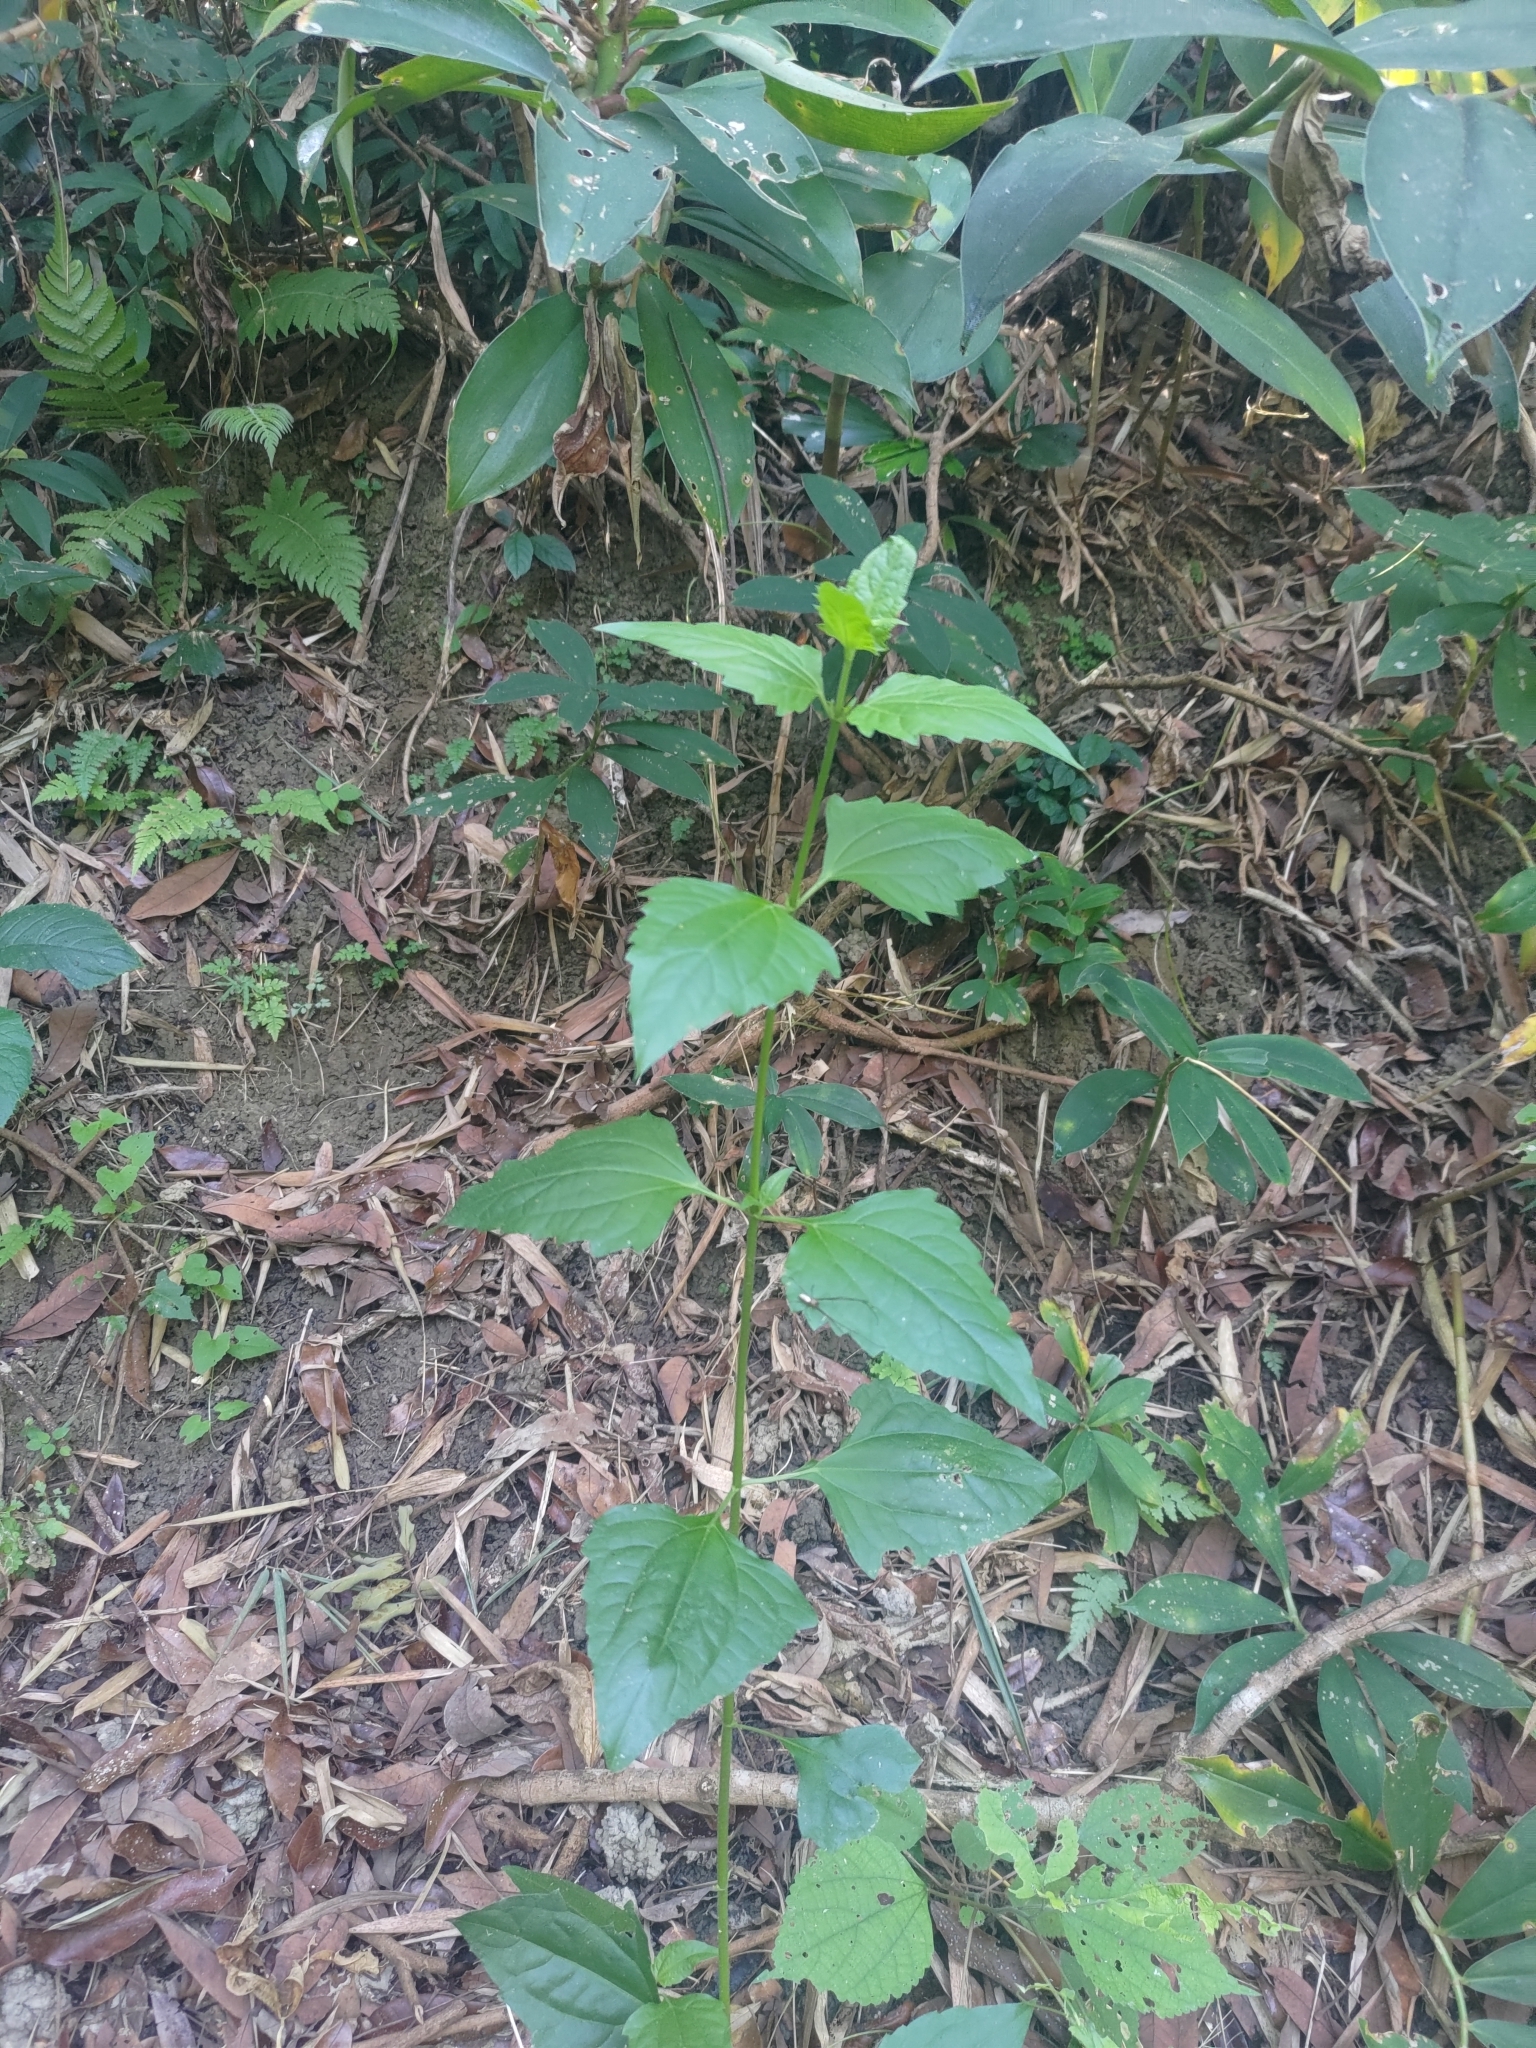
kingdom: Plantae
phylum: Tracheophyta
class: Magnoliopsida
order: Asterales
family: Asteraceae
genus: Chromolaena
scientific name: Chromolaena odorata
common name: Siamweed
